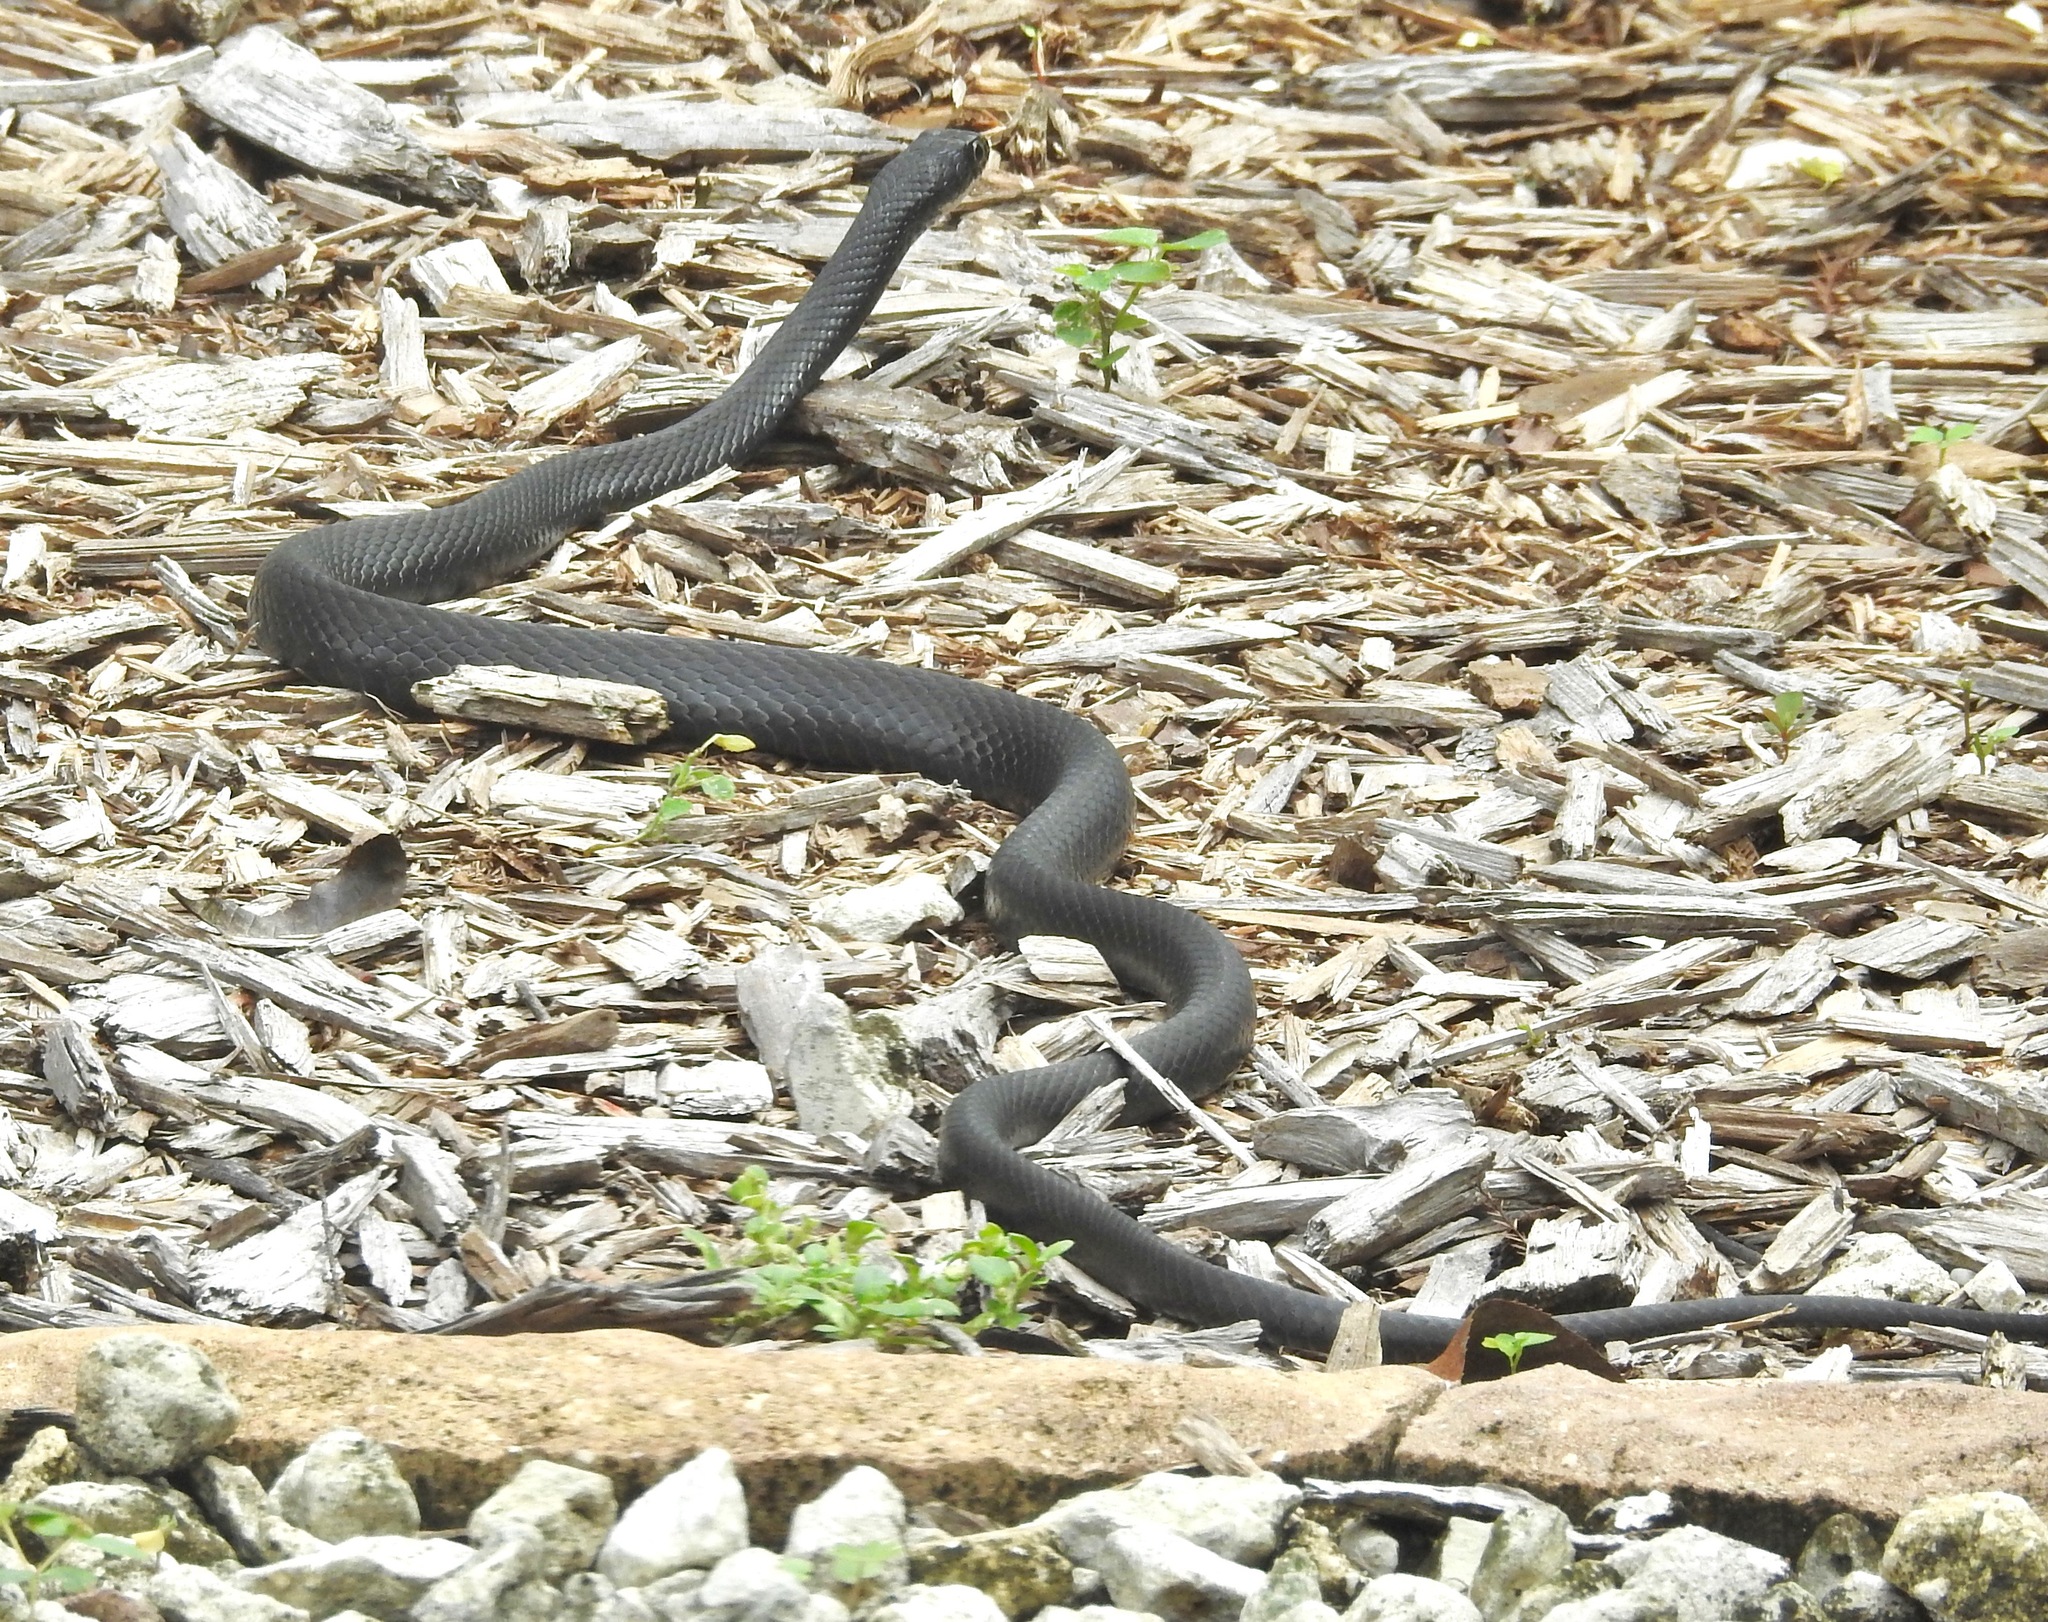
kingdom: Animalia
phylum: Chordata
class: Squamata
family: Colubridae
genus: Coluber
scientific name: Coluber constrictor
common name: Eastern racer
